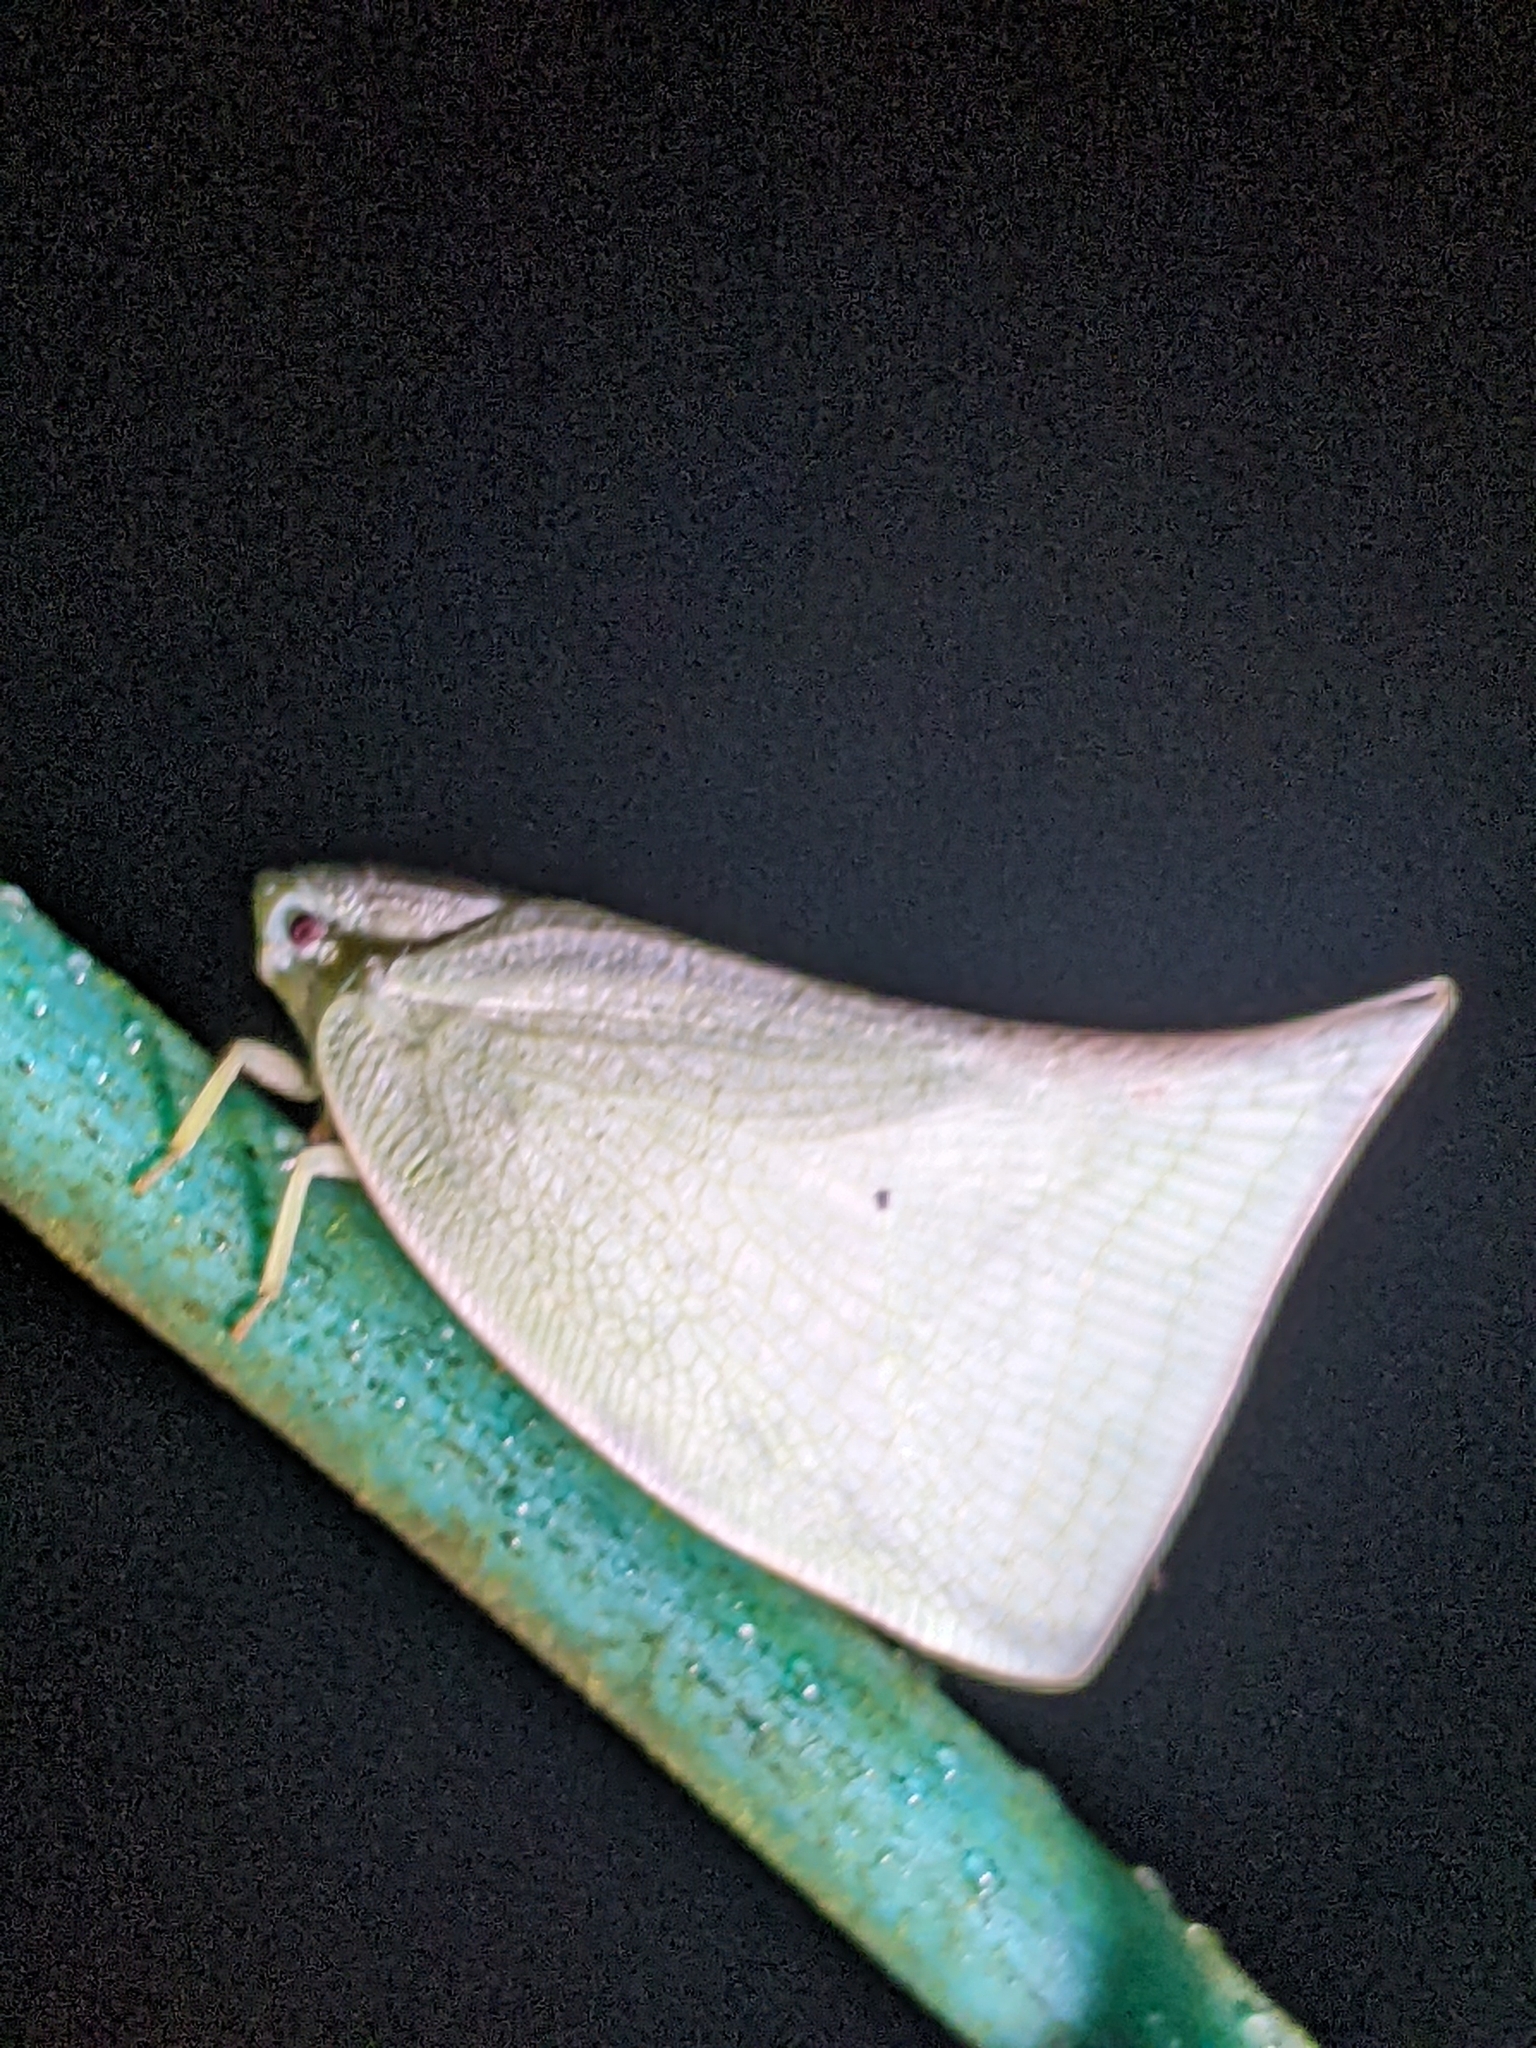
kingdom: Animalia
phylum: Arthropoda
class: Insecta
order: Hemiptera
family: Flatidae
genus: Lawana
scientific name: Lawana adscendens
